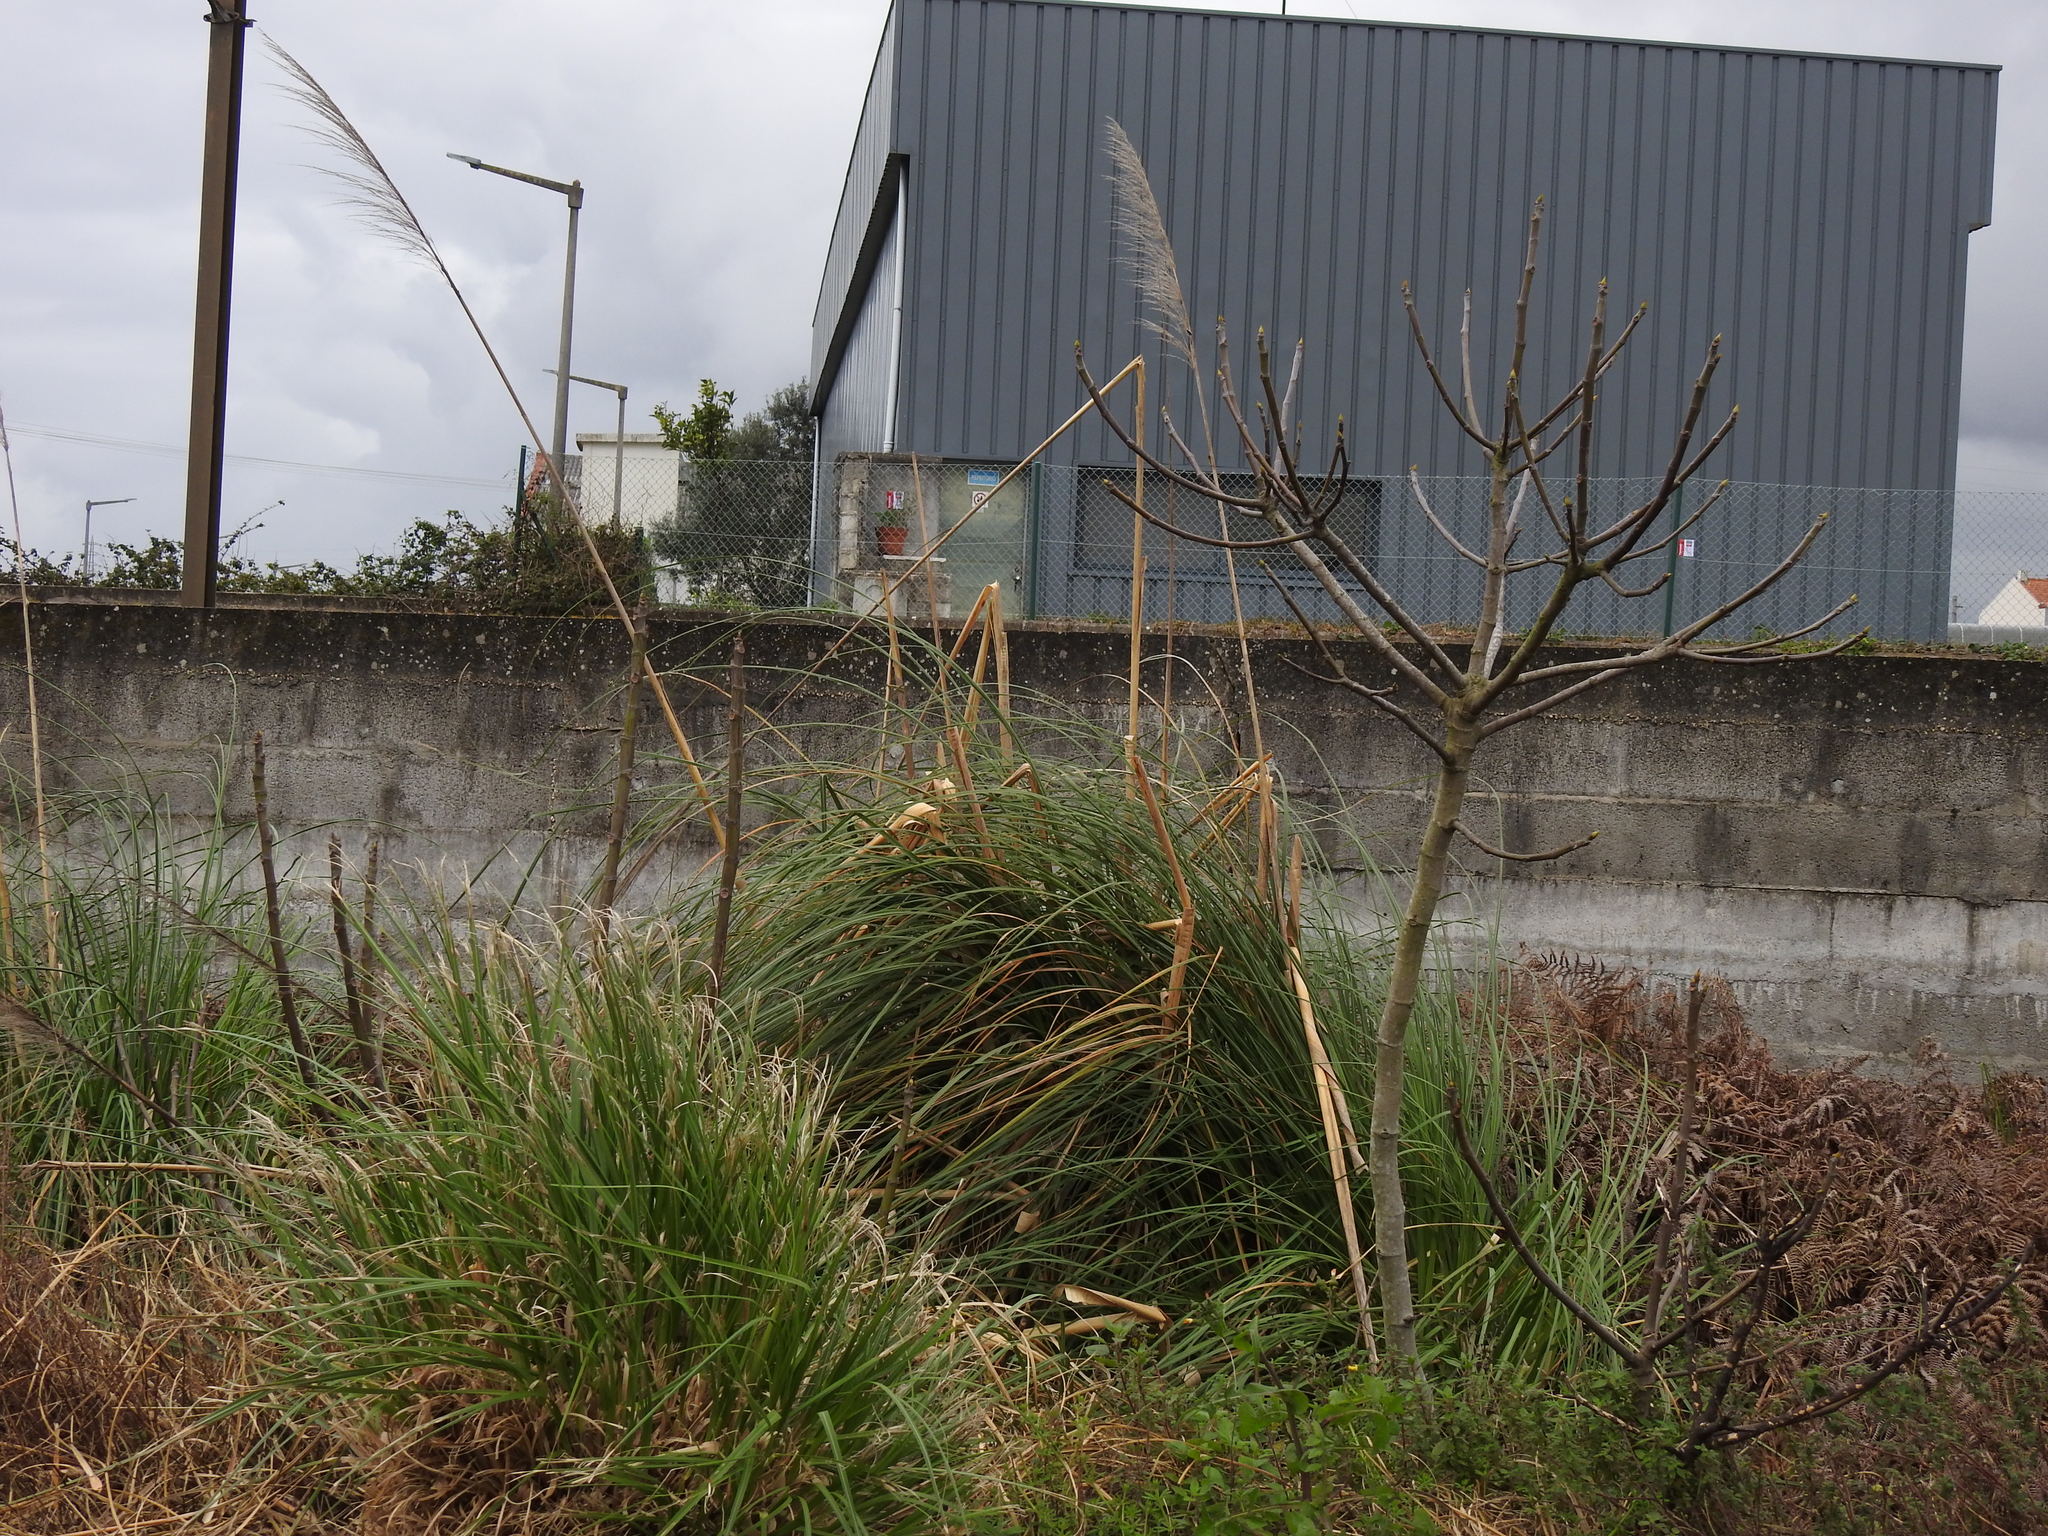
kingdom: Plantae
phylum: Tracheophyta
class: Liliopsida
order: Poales
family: Poaceae
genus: Cortaderia
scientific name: Cortaderia selloana
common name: Uruguayan pampas grass
